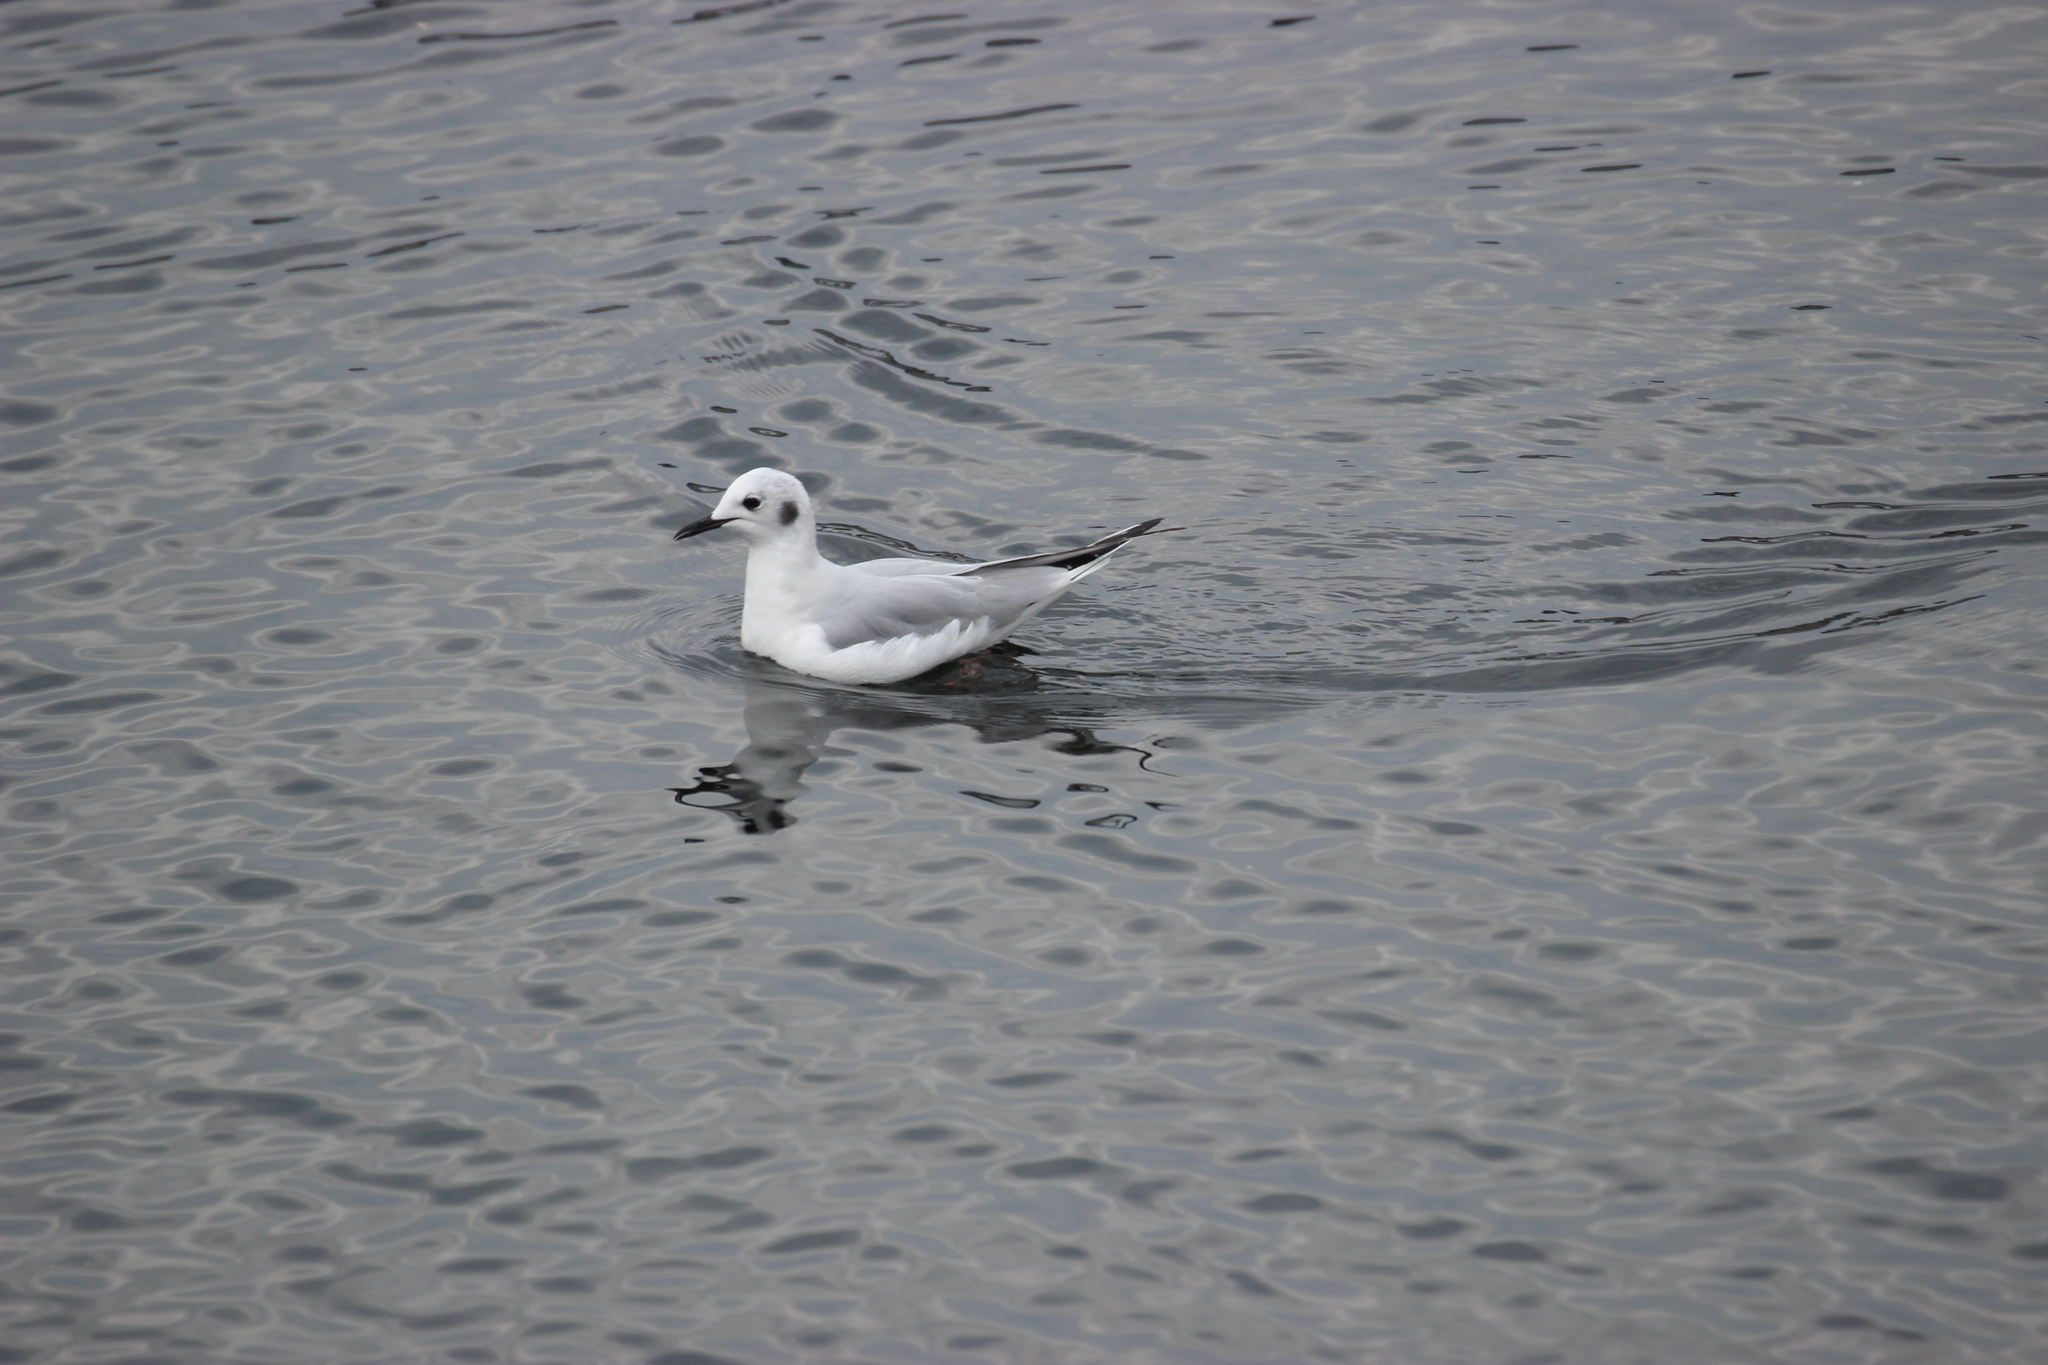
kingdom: Animalia
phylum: Chordata
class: Aves
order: Charadriiformes
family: Laridae
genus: Chroicocephalus
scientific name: Chroicocephalus philadelphia
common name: Bonaparte's gull
